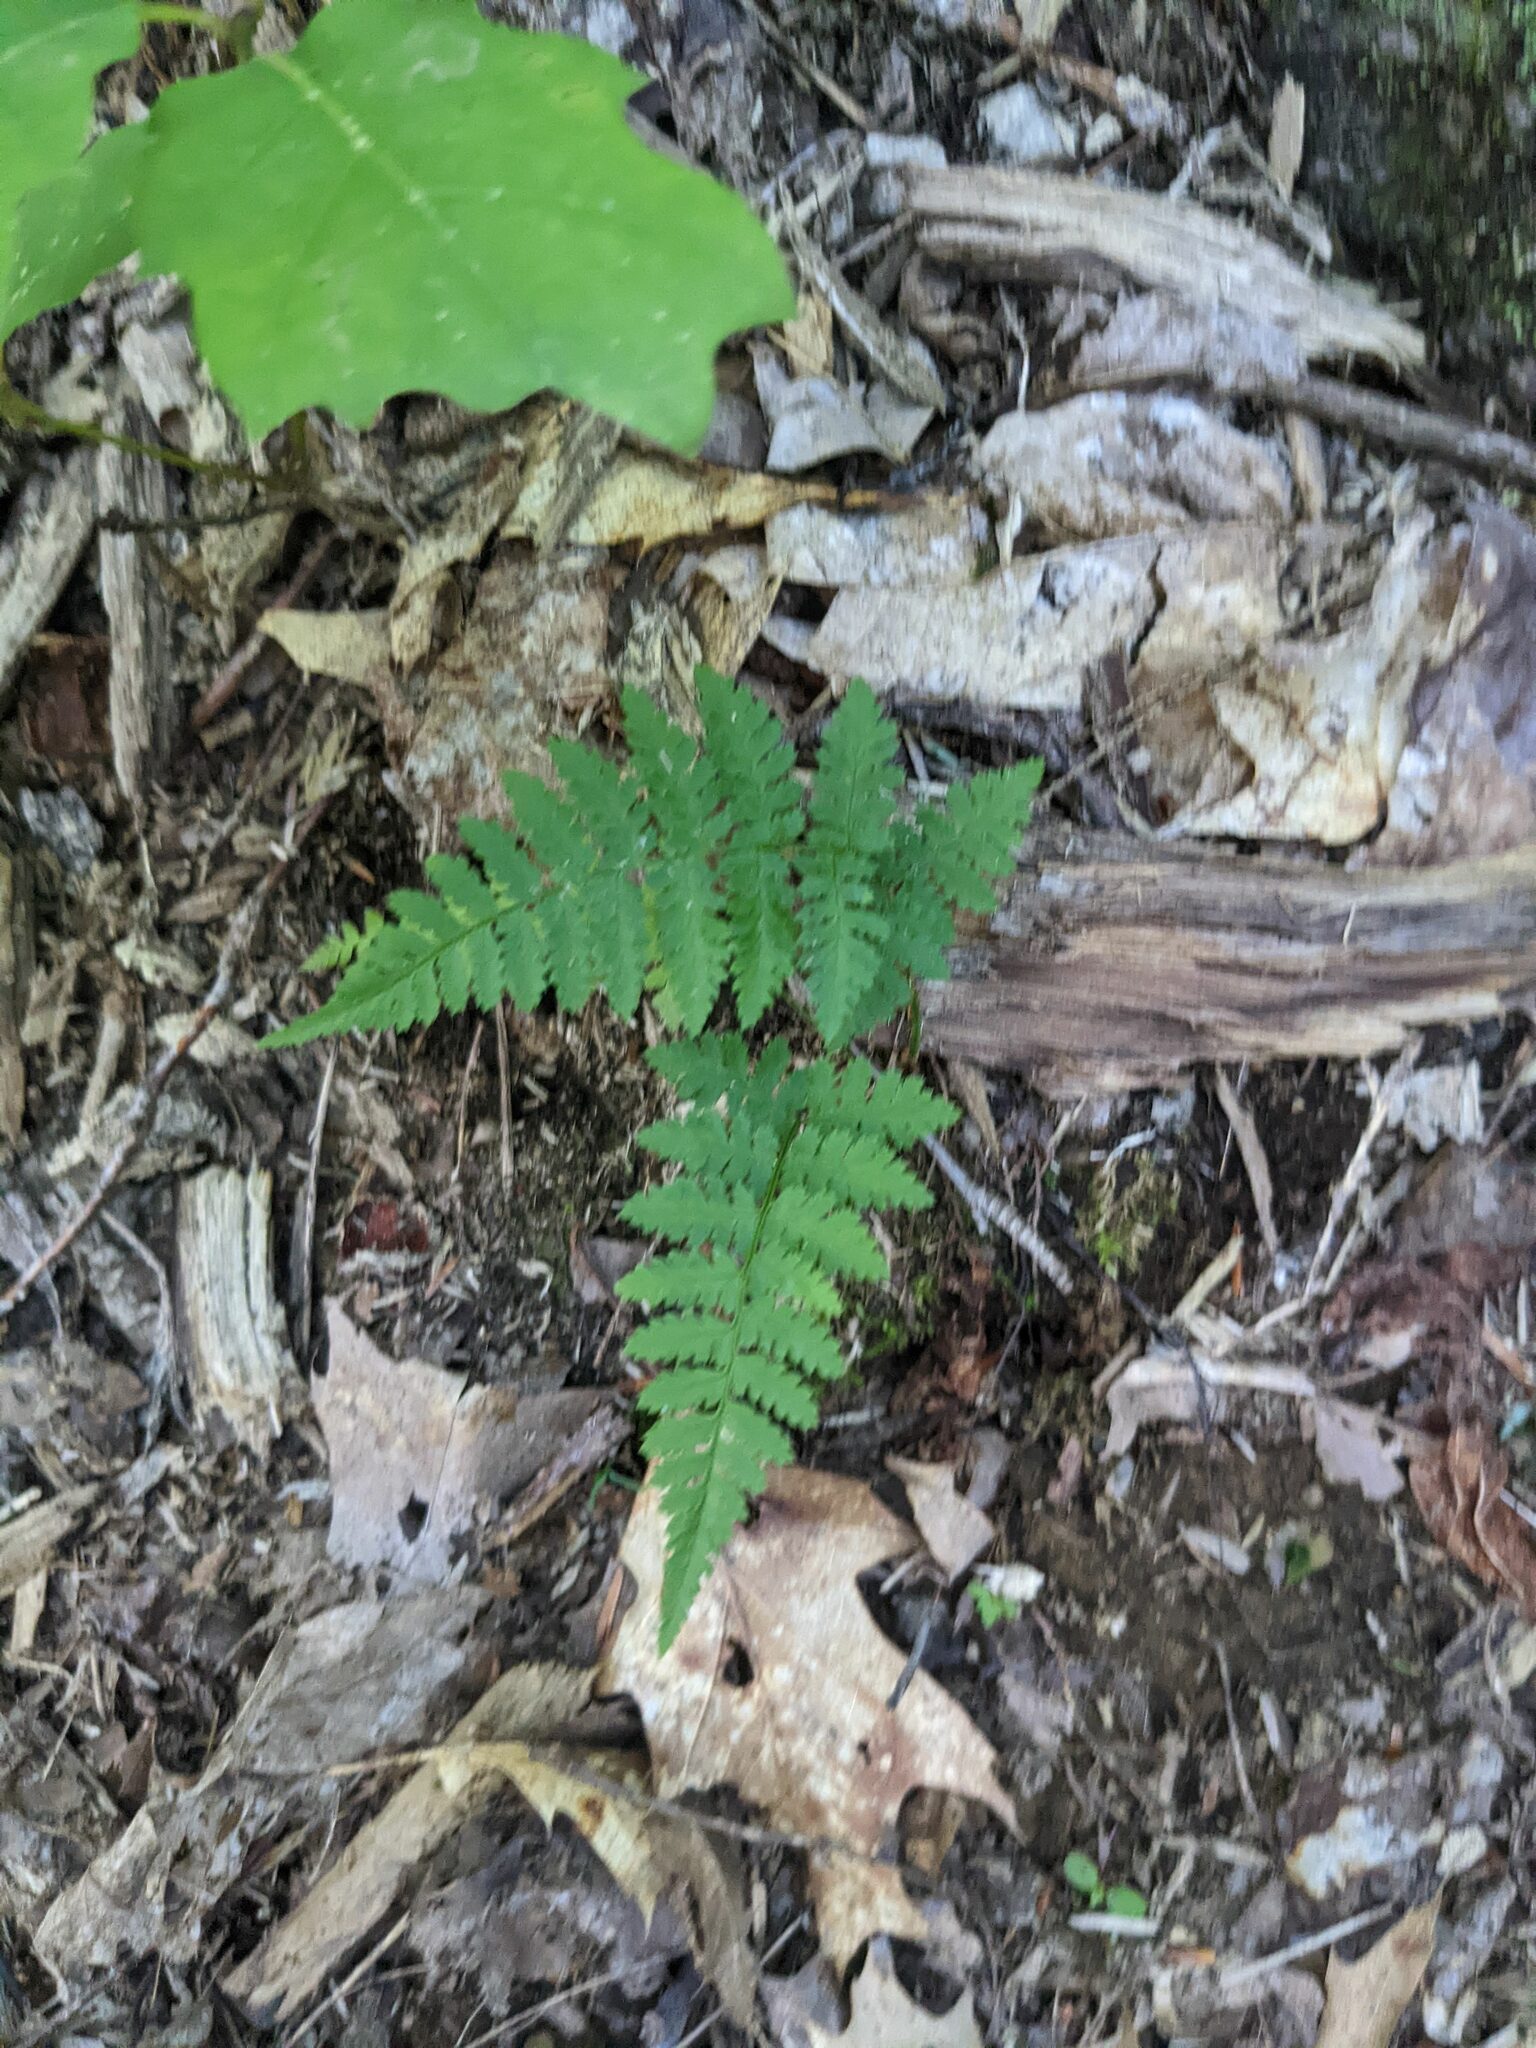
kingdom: Plantae
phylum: Tracheophyta
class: Polypodiopsida
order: Polypodiales
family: Dryopteridaceae
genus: Dryopteris
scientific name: Dryopteris intermedia
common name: Evergreen wood fern
